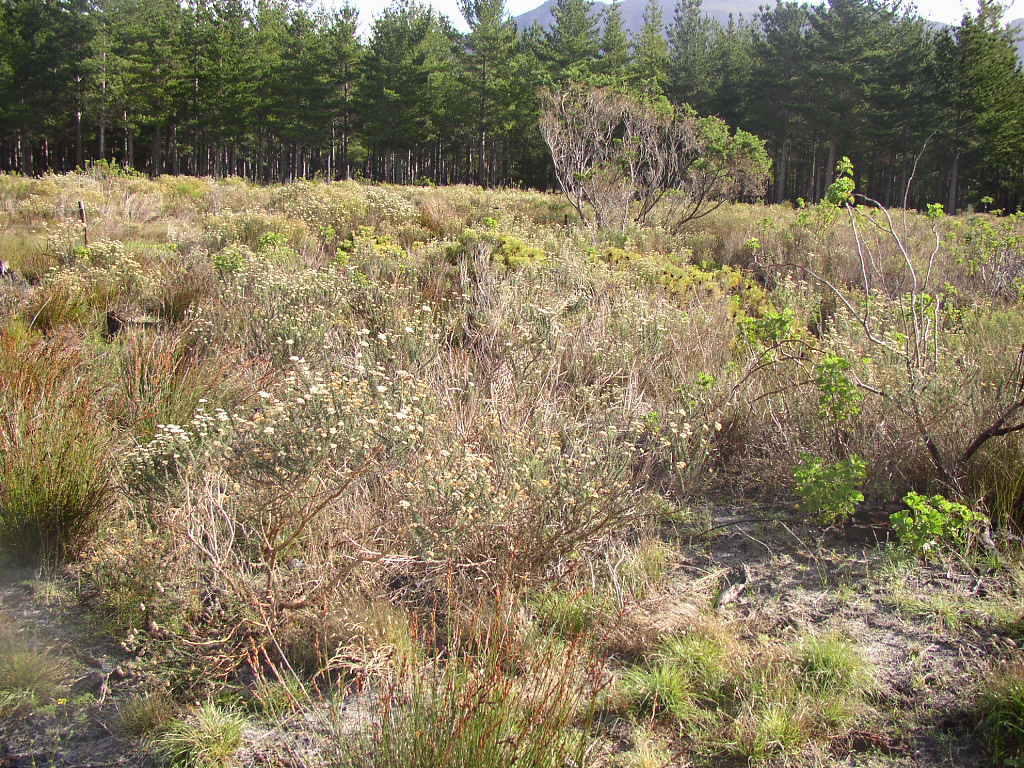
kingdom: Plantae
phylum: Tracheophyta
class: Magnoliopsida
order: Asterales
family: Asteraceae
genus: Metalasia
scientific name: Metalasia densa
